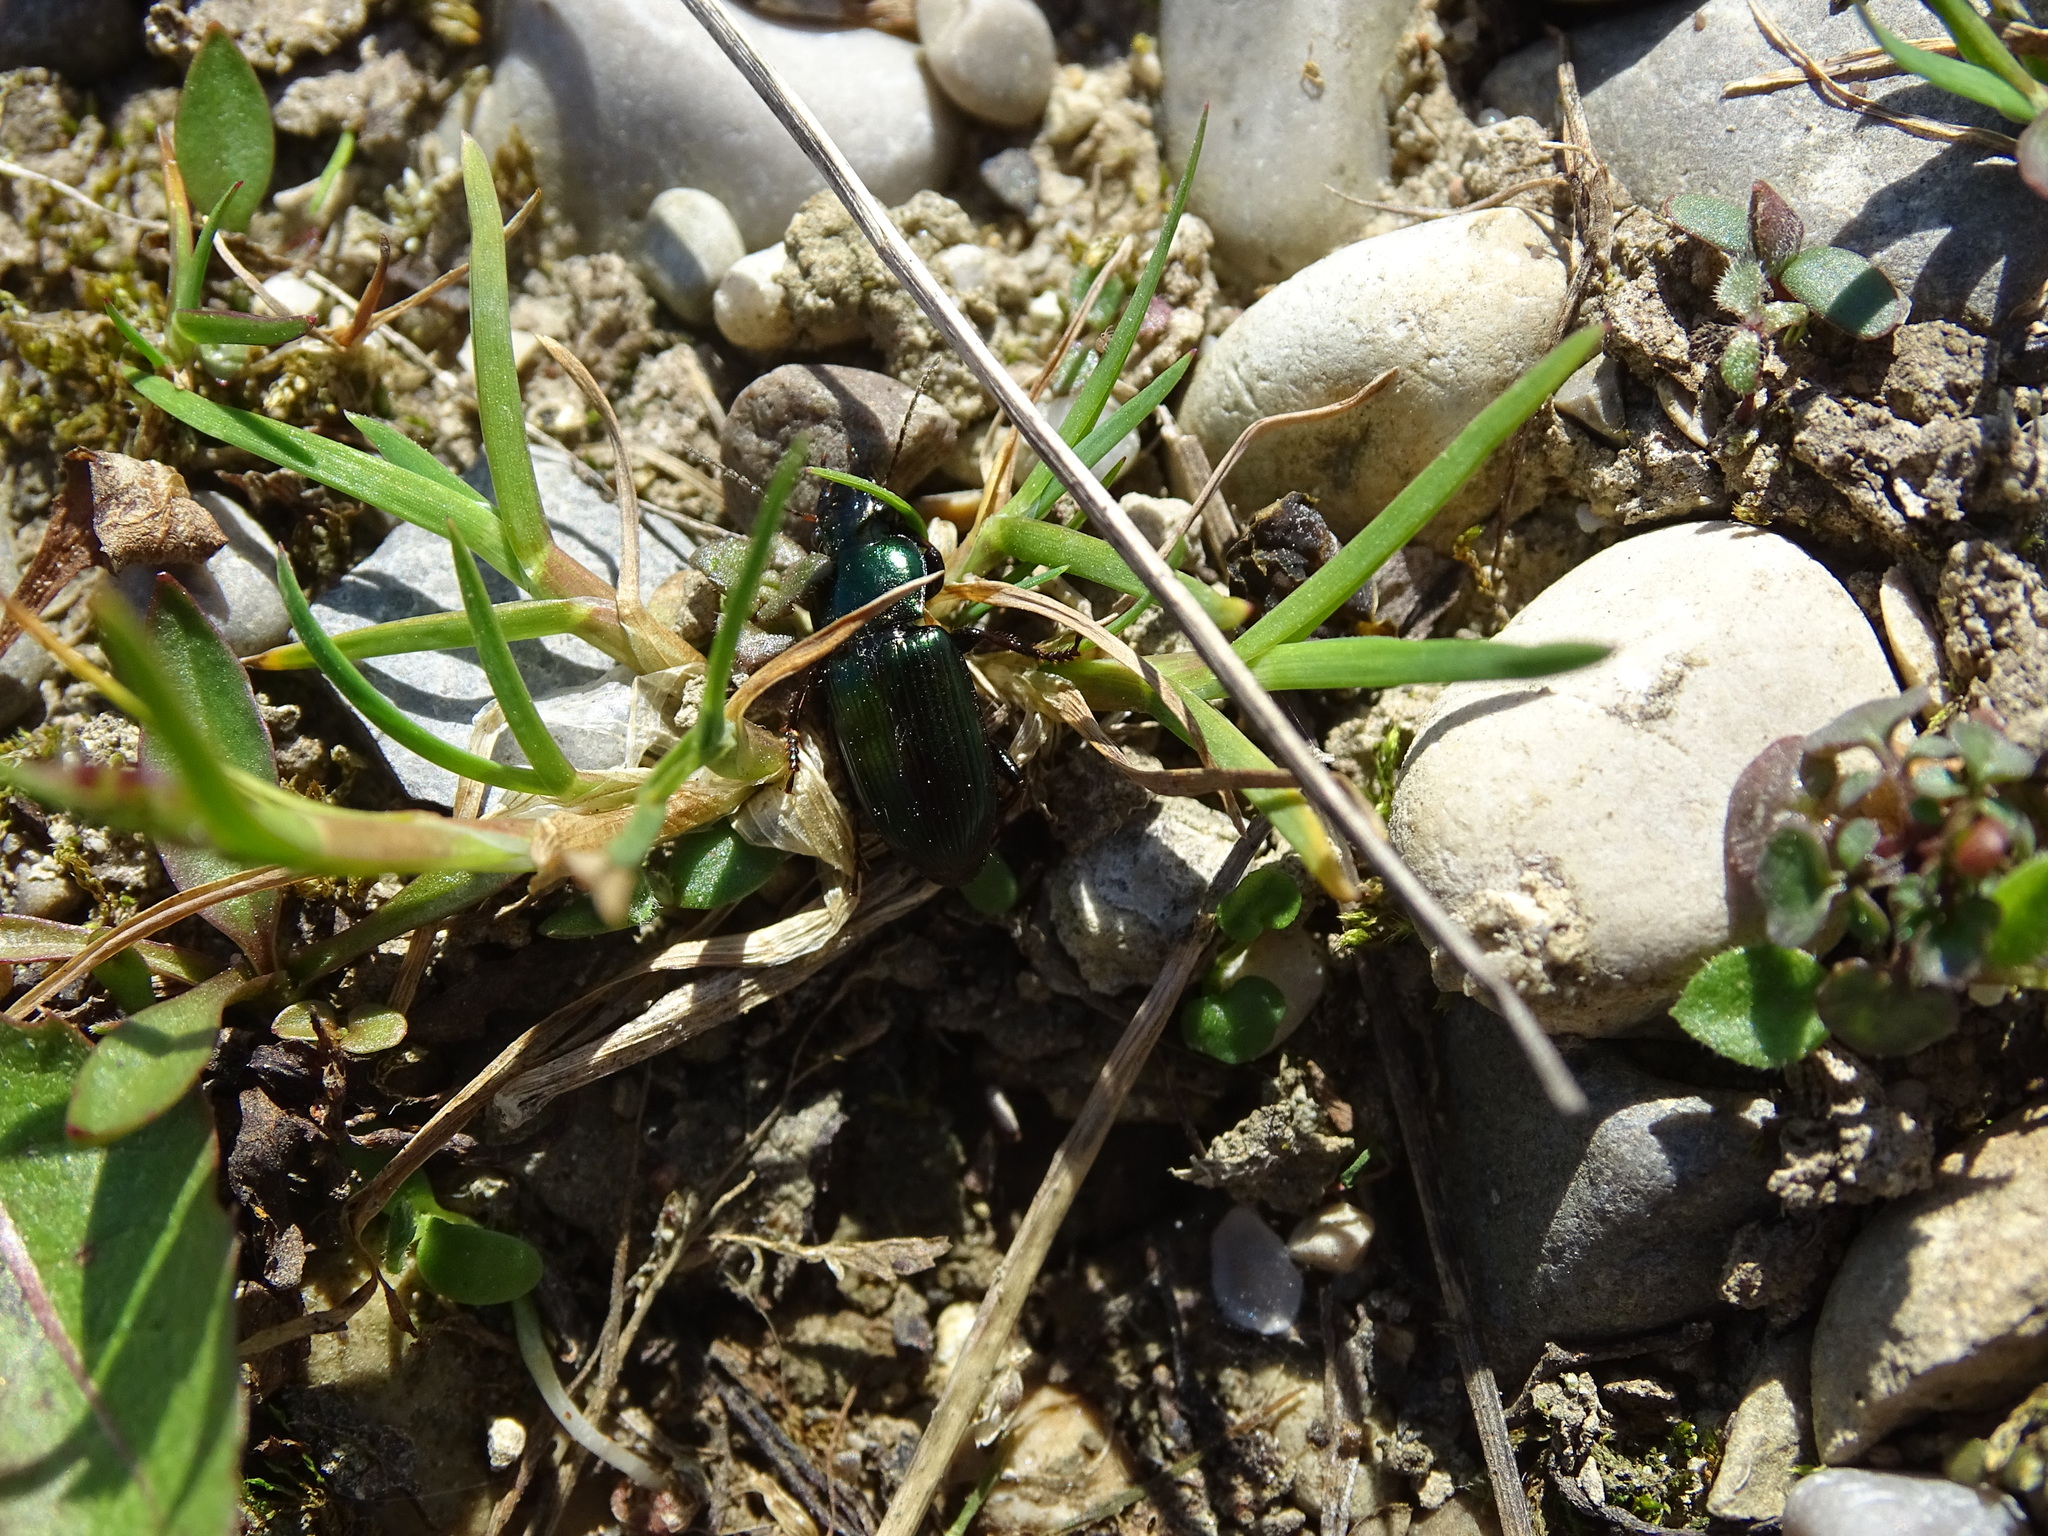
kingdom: Animalia
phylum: Arthropoda
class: Insecta
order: Coleoptera
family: Carabidae
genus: Harpalus
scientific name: Harpalus affinis
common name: Polychrome harp ground beetle
